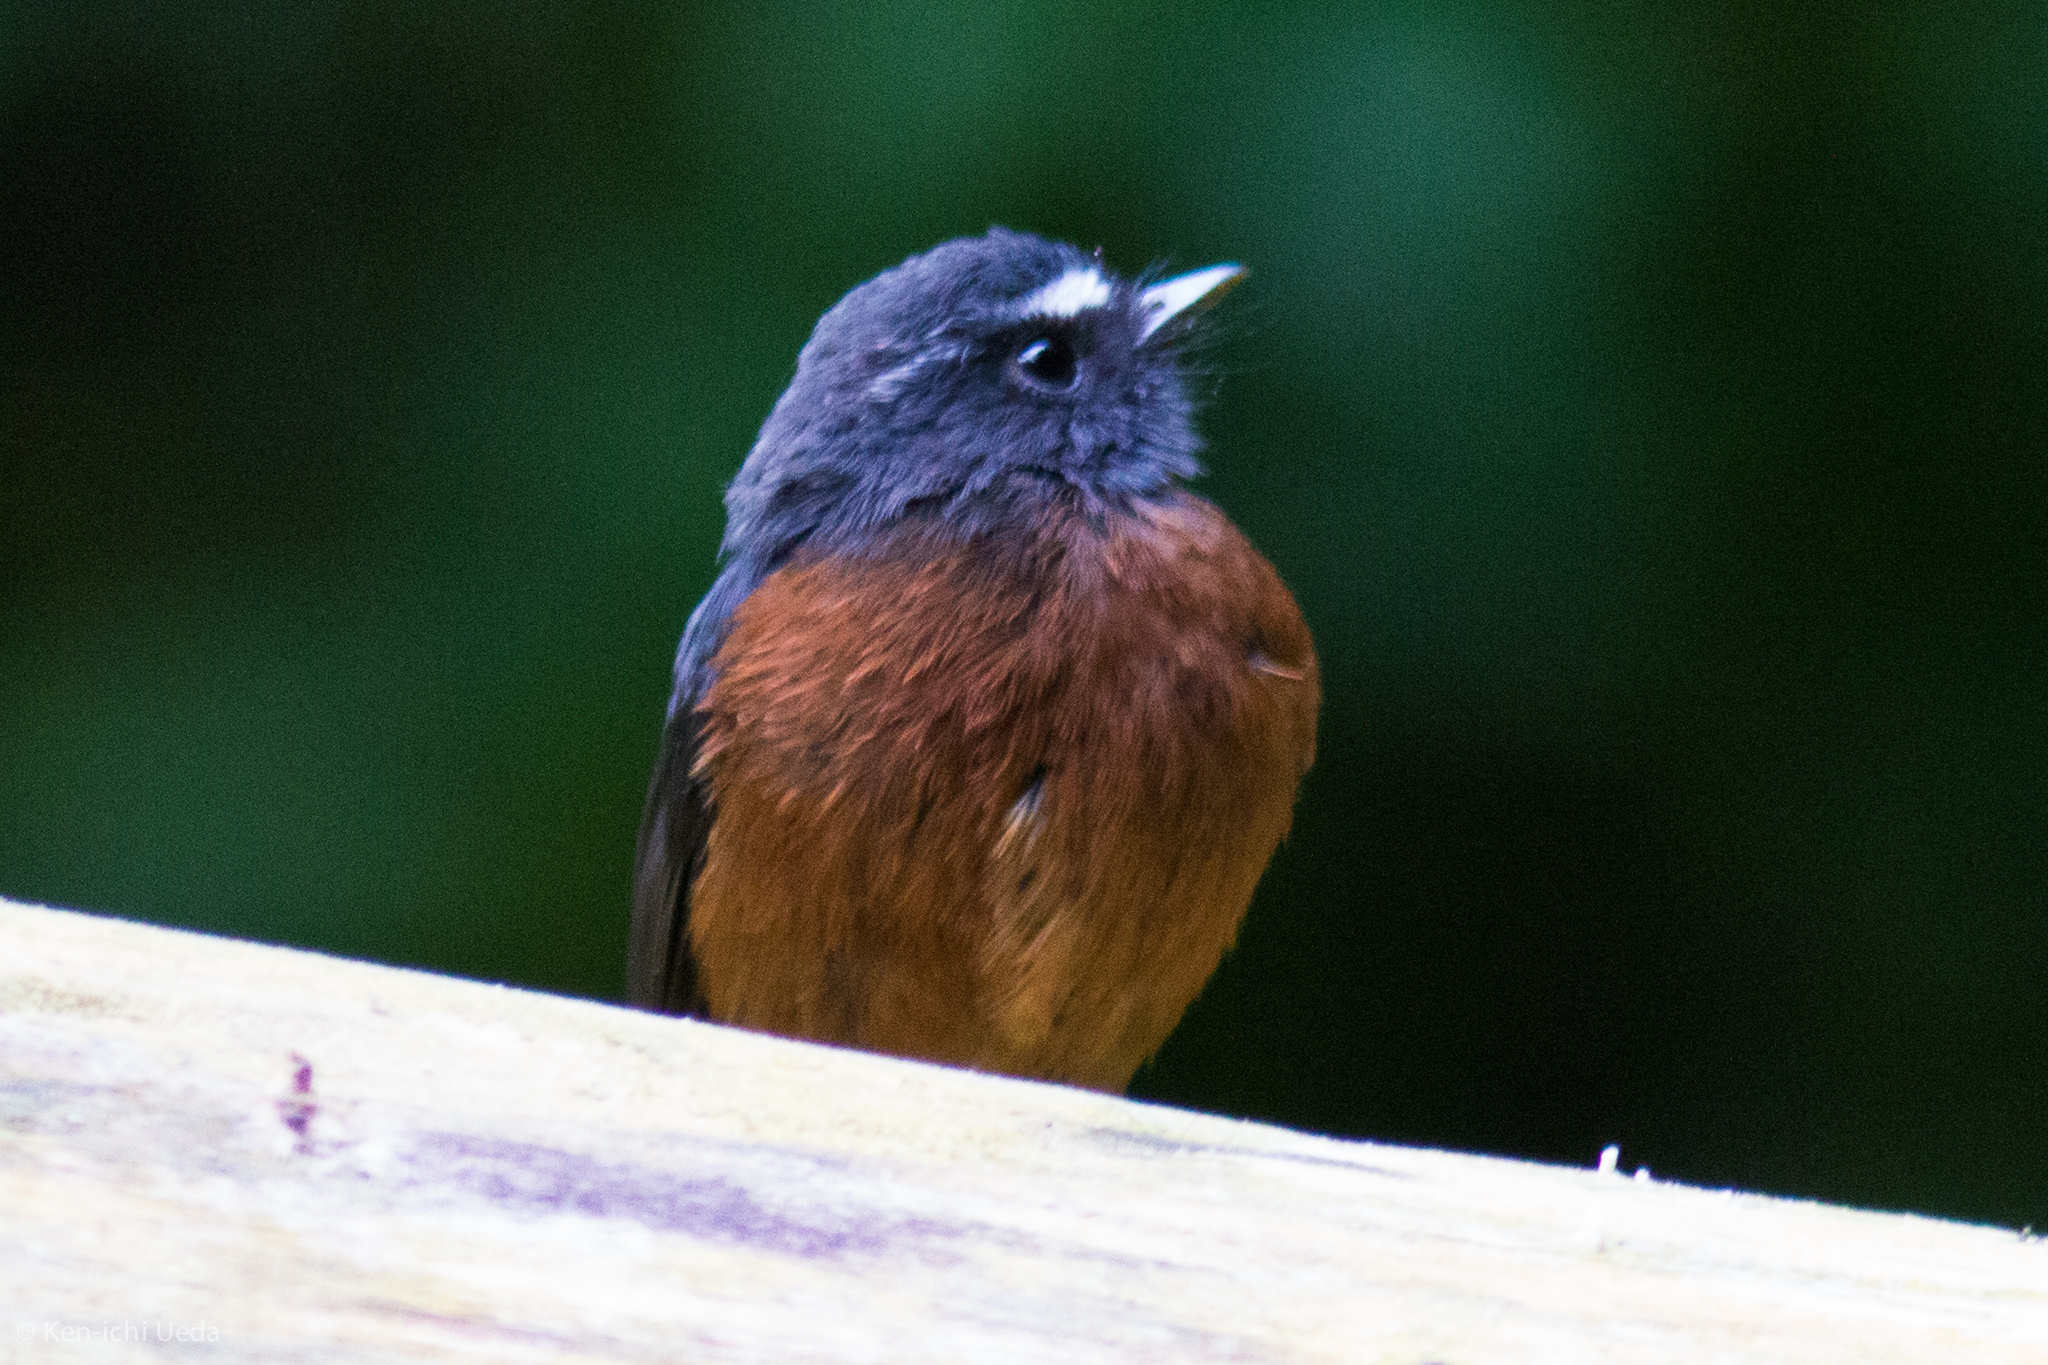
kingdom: Animalia
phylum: Chordata
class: Aves
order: Passeriformes
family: Tyrannidae
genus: Ochthoeca
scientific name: Ochthoeca cinnamomeiventris
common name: Slaty-backed chat-tyrant
